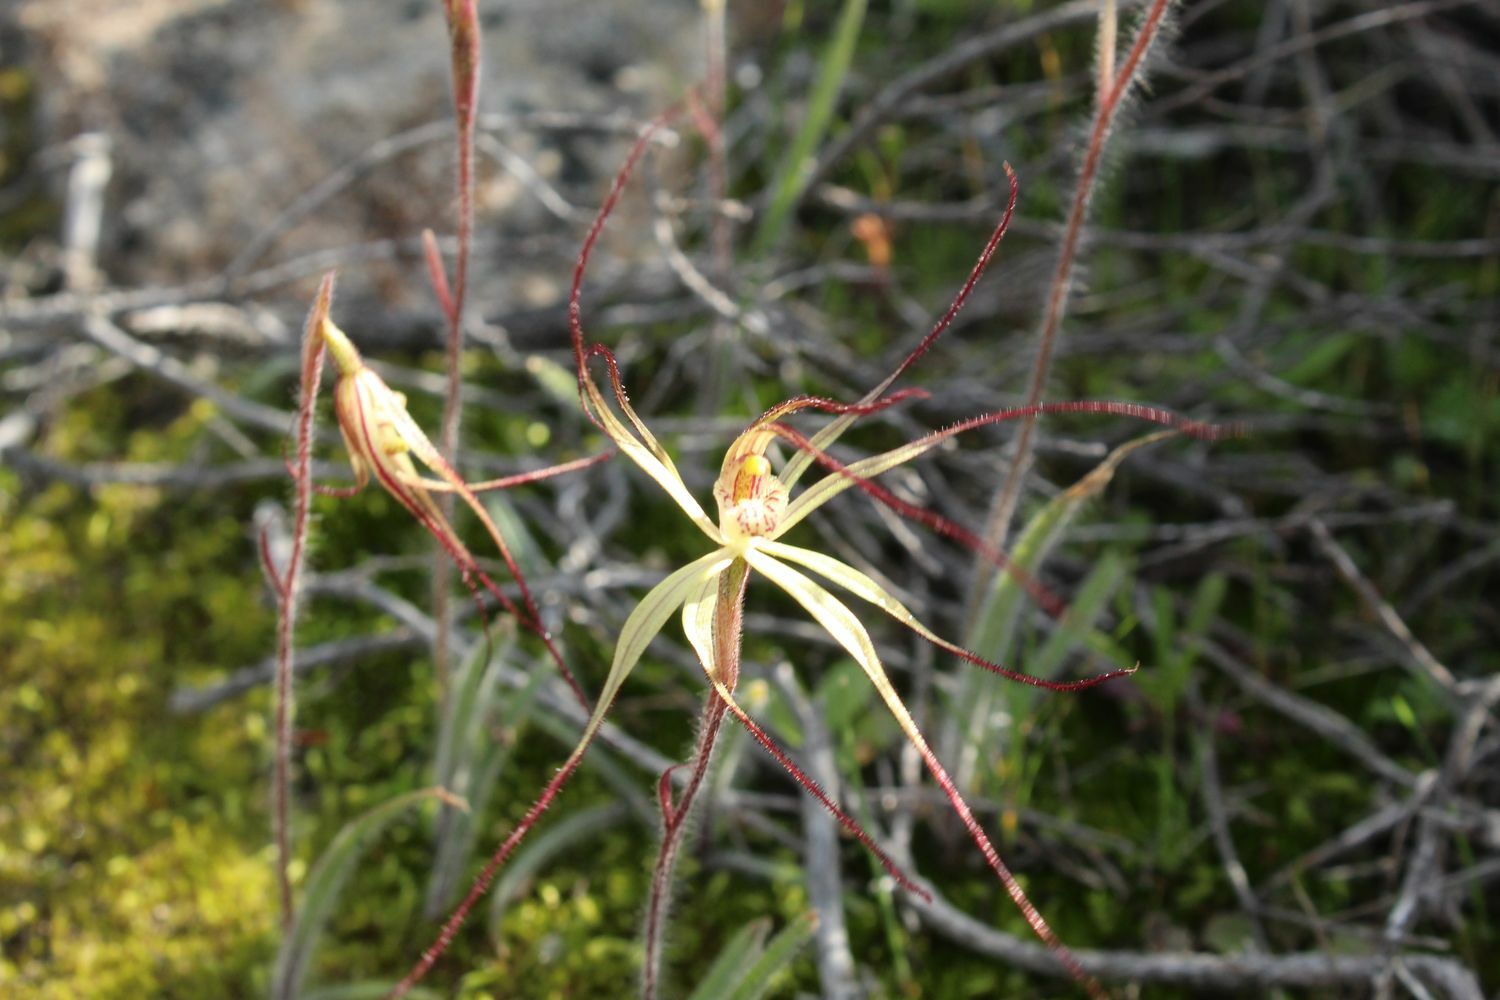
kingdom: Plantae
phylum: Tracheophyta
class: Liliopsida
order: Asparagales
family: Orchidaceae
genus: Caladenia
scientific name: Caladenia microchila
